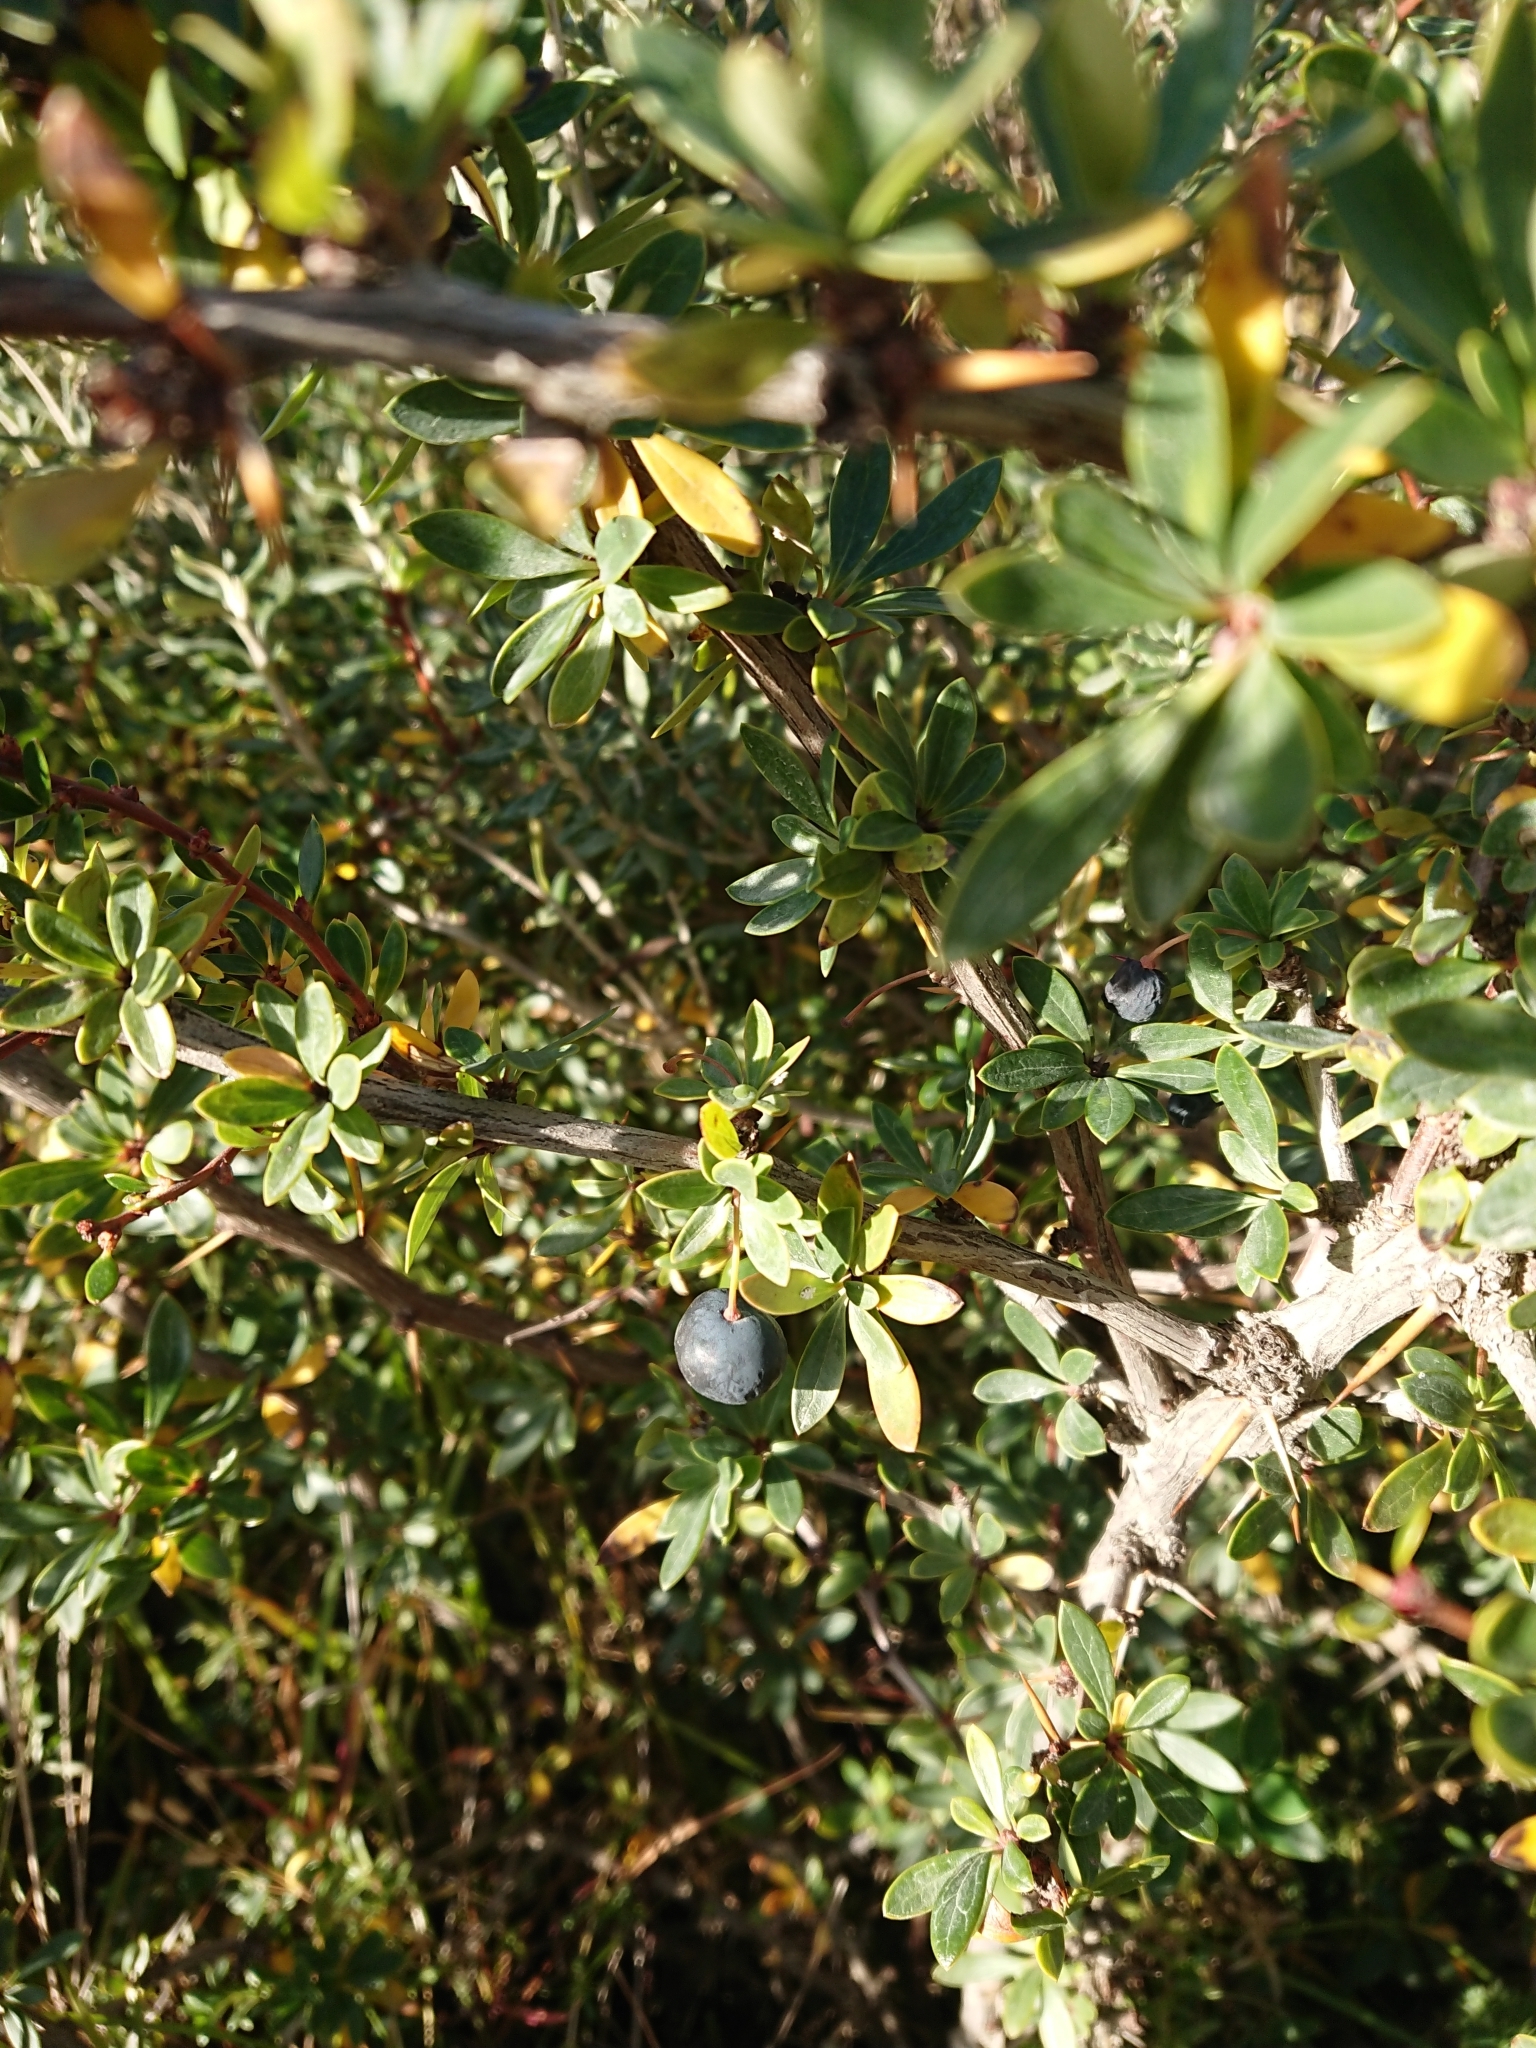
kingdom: Plantae
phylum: Tracheophyta
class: Magnoliopsida
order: Ranunculales
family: Berberidaceae
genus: Berberis
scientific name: Berberis microphylla
